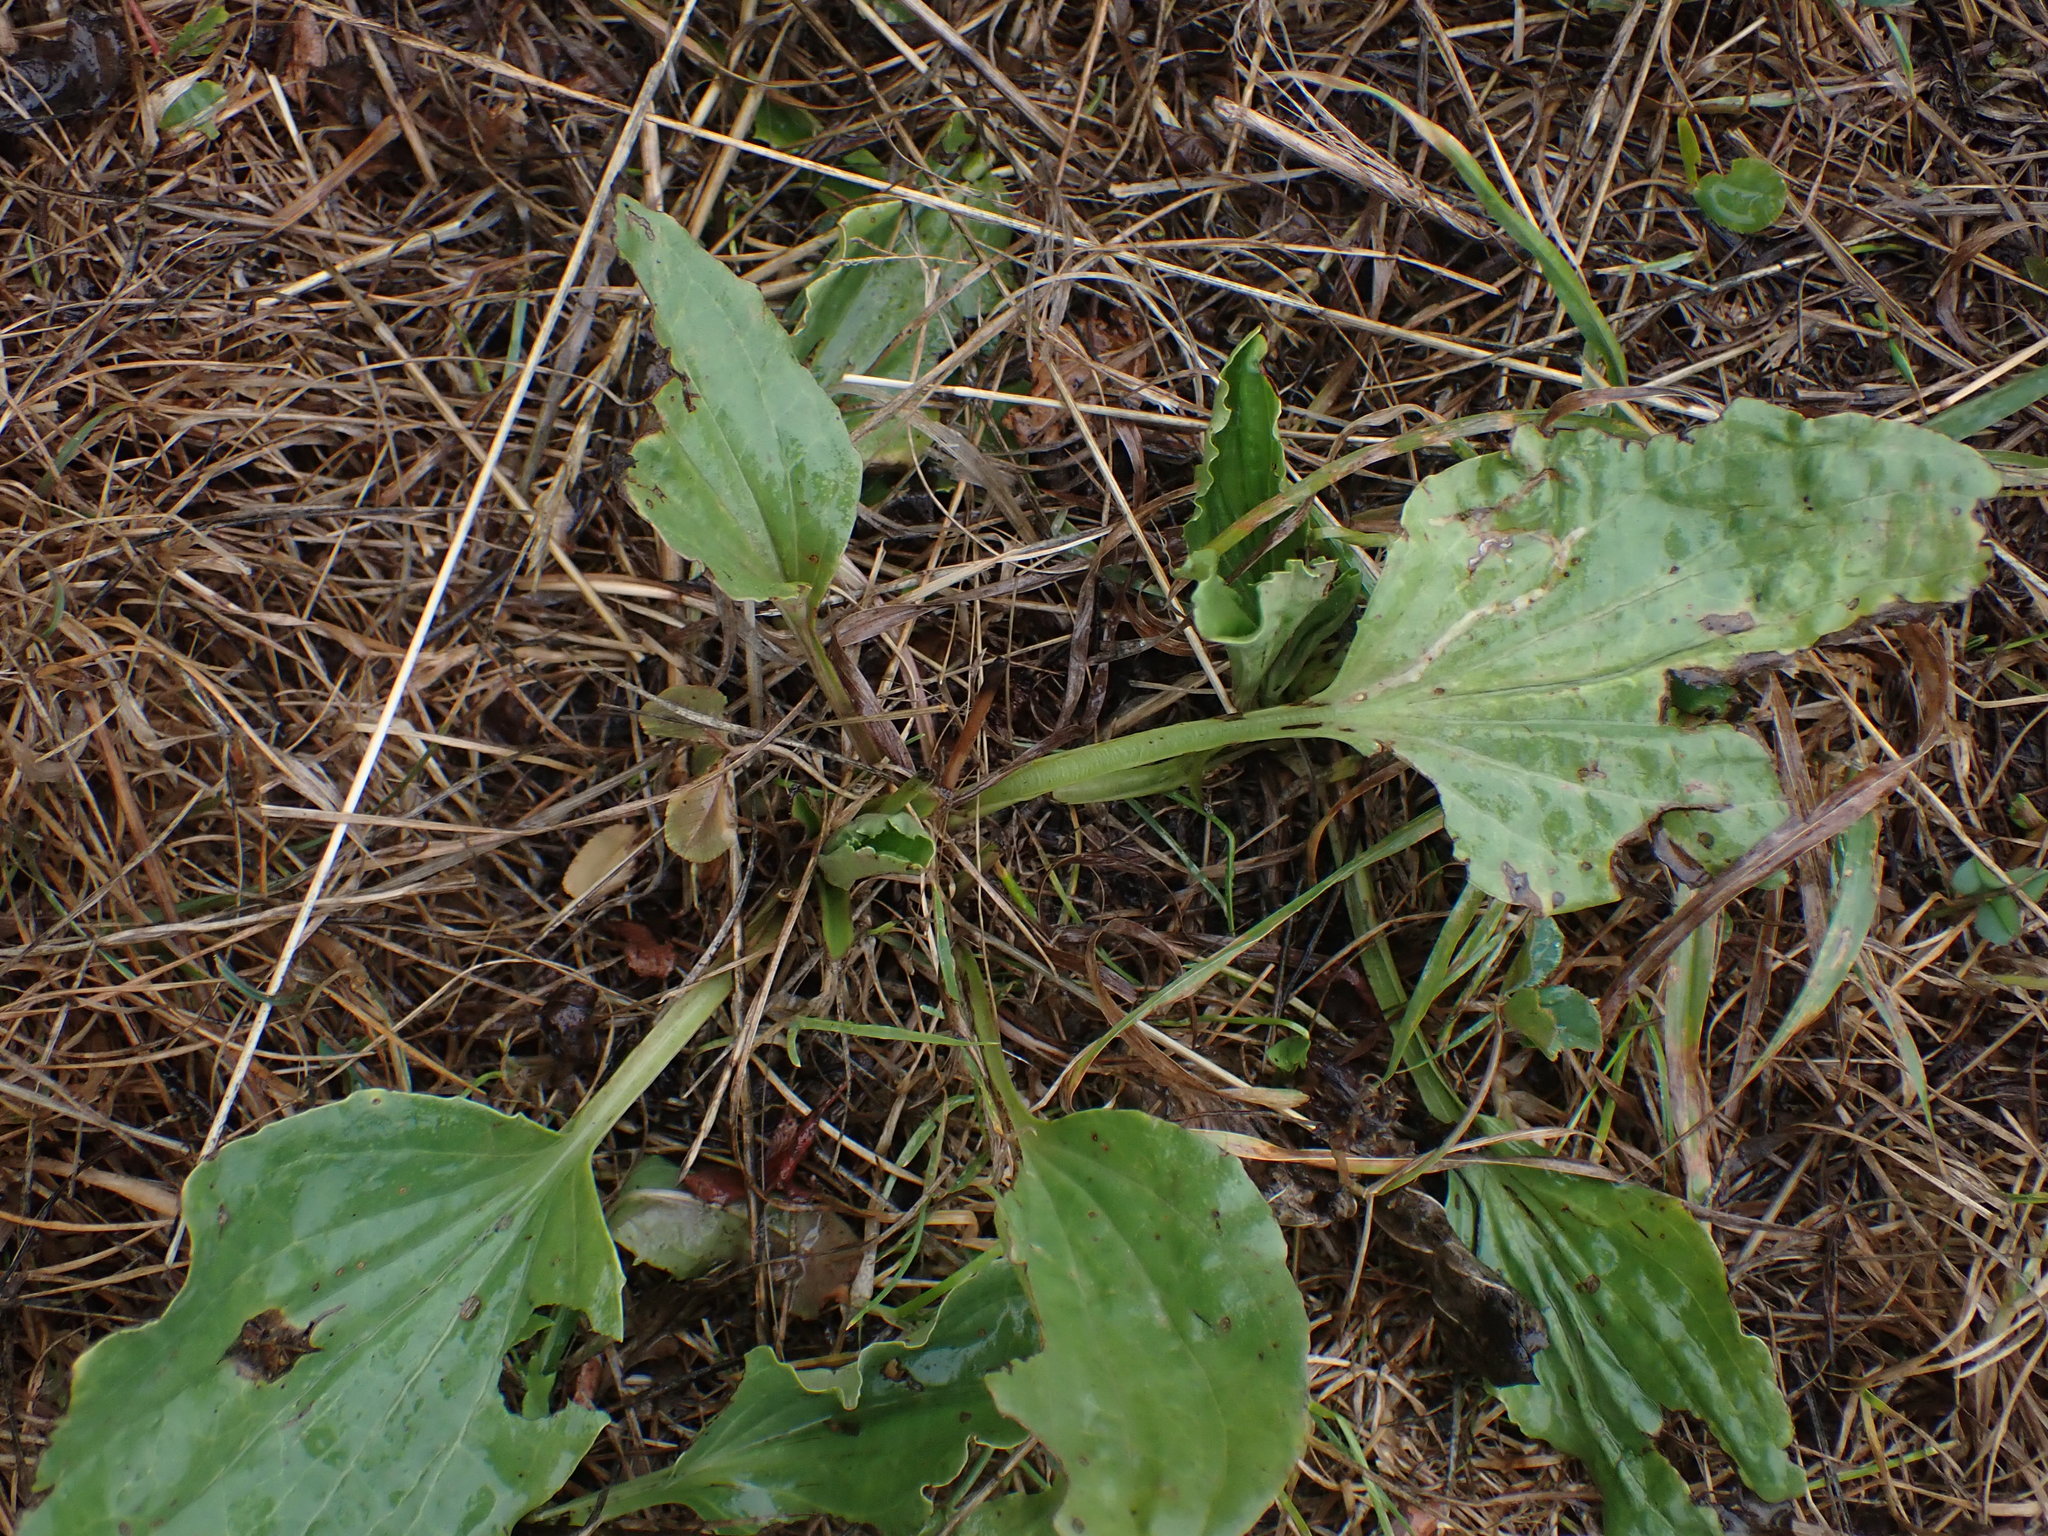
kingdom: Plantae
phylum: Tracheophyta
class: Magnoliopsida
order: Lamiales
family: Plantaginaceae
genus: Plantago
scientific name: Plantago major
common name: Common plantain
